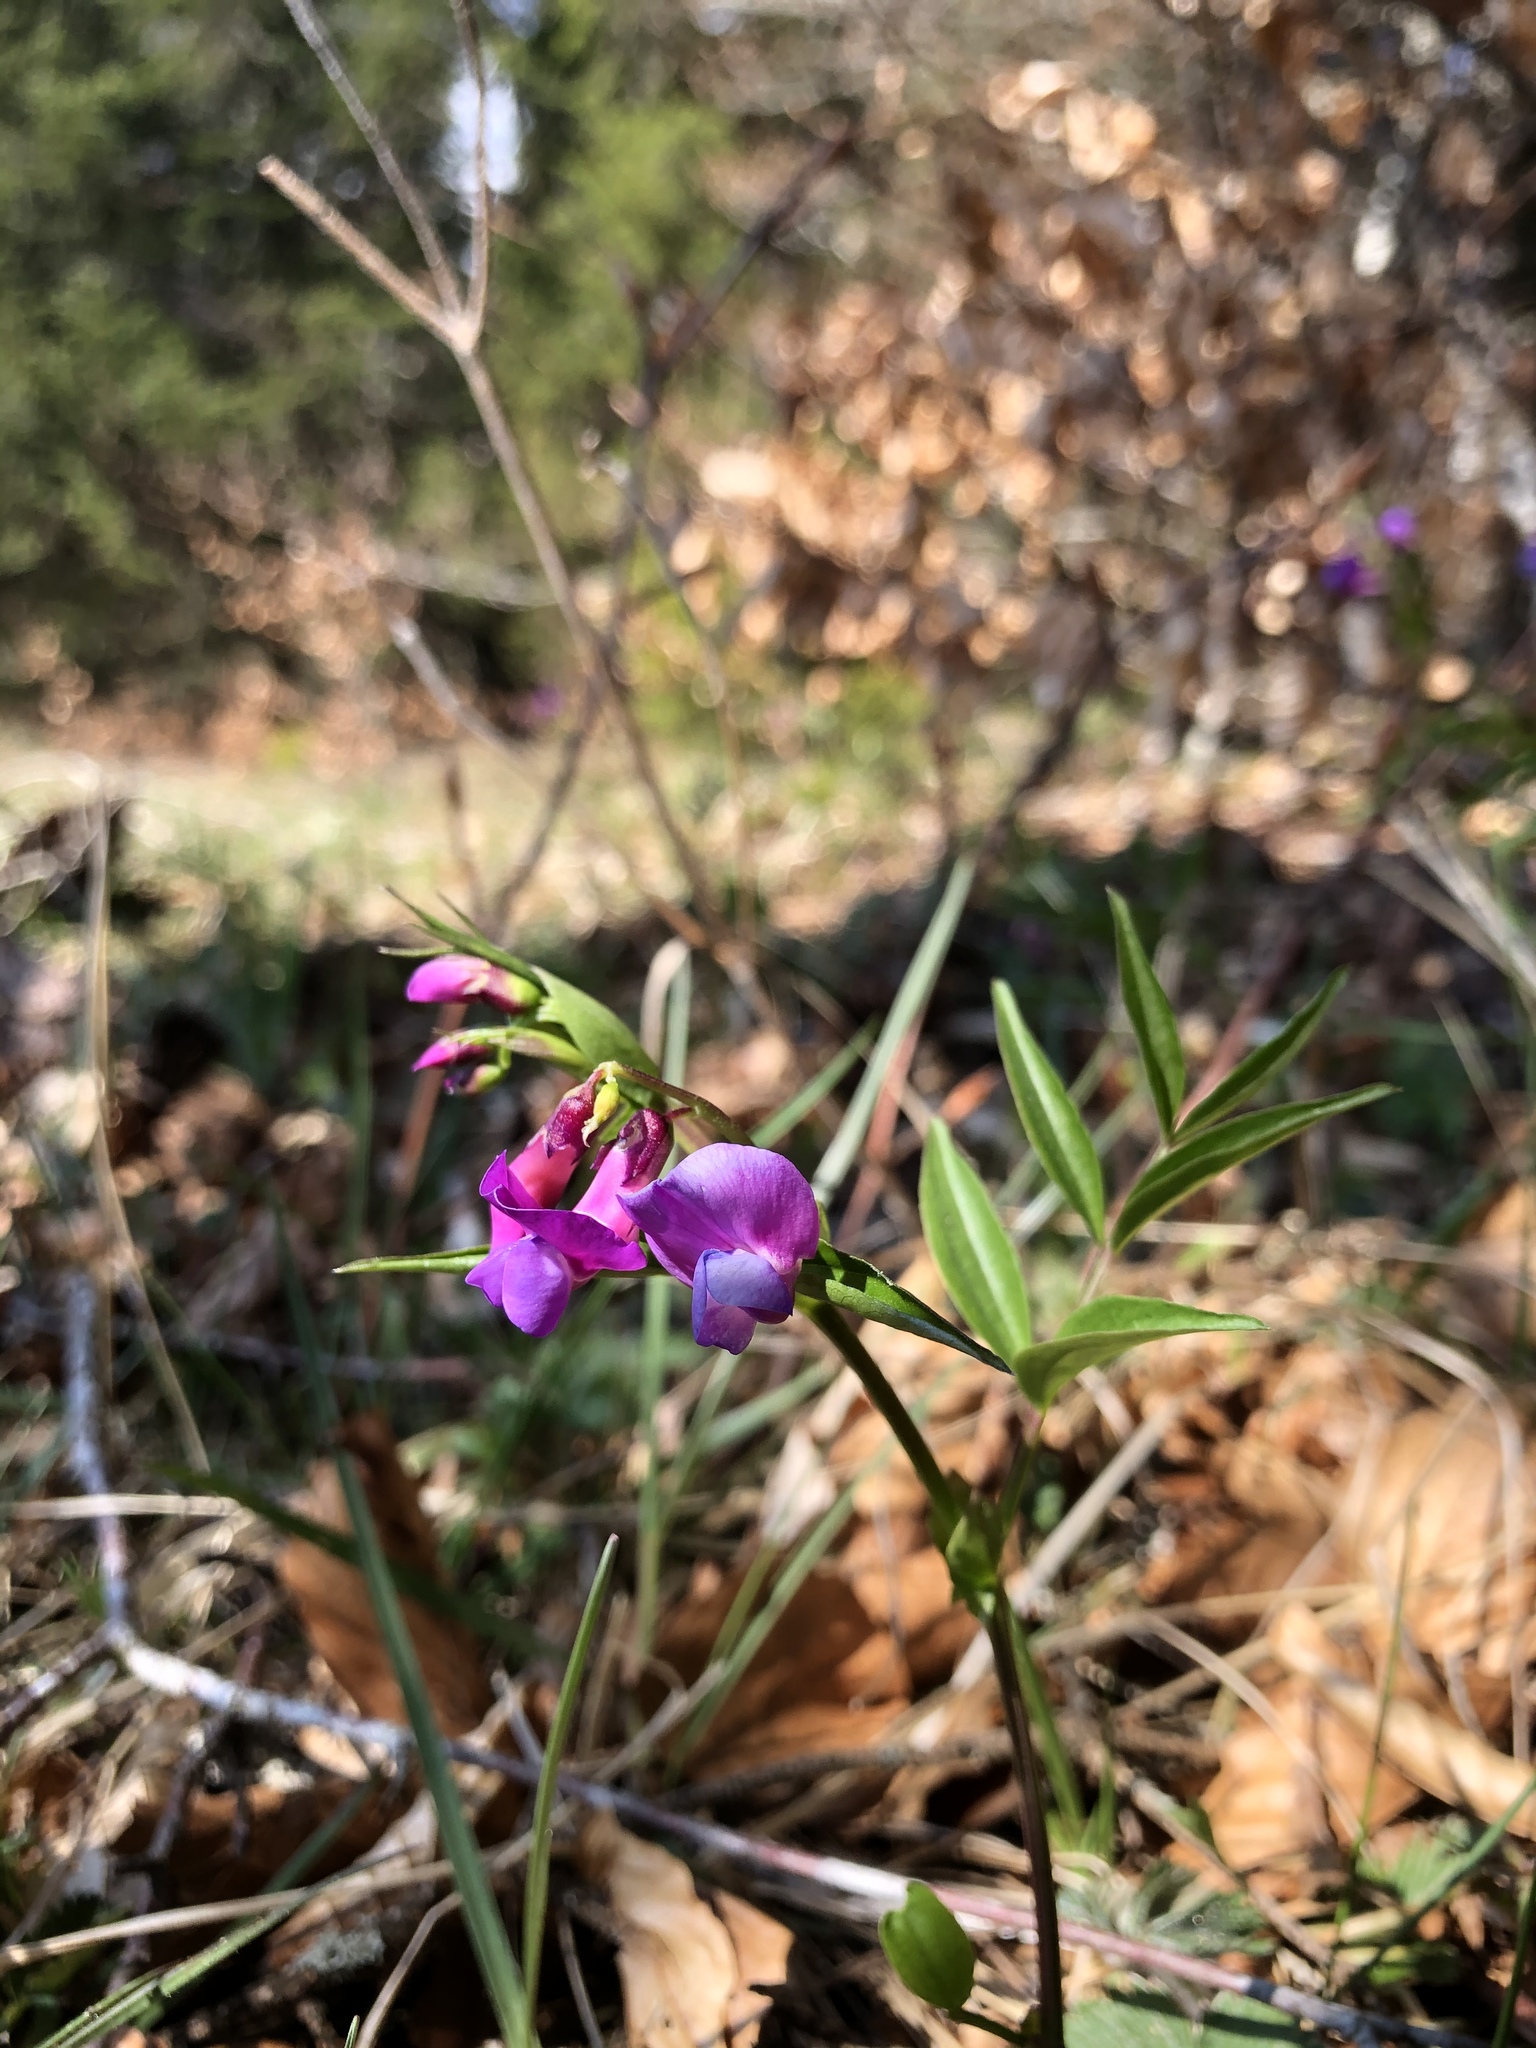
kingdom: Plantae
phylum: Tracheophyta
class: Magnoliopsida
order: Fabales
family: Fabaceae
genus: Lathyrus
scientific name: Lathyrus vernus
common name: Spring pea
